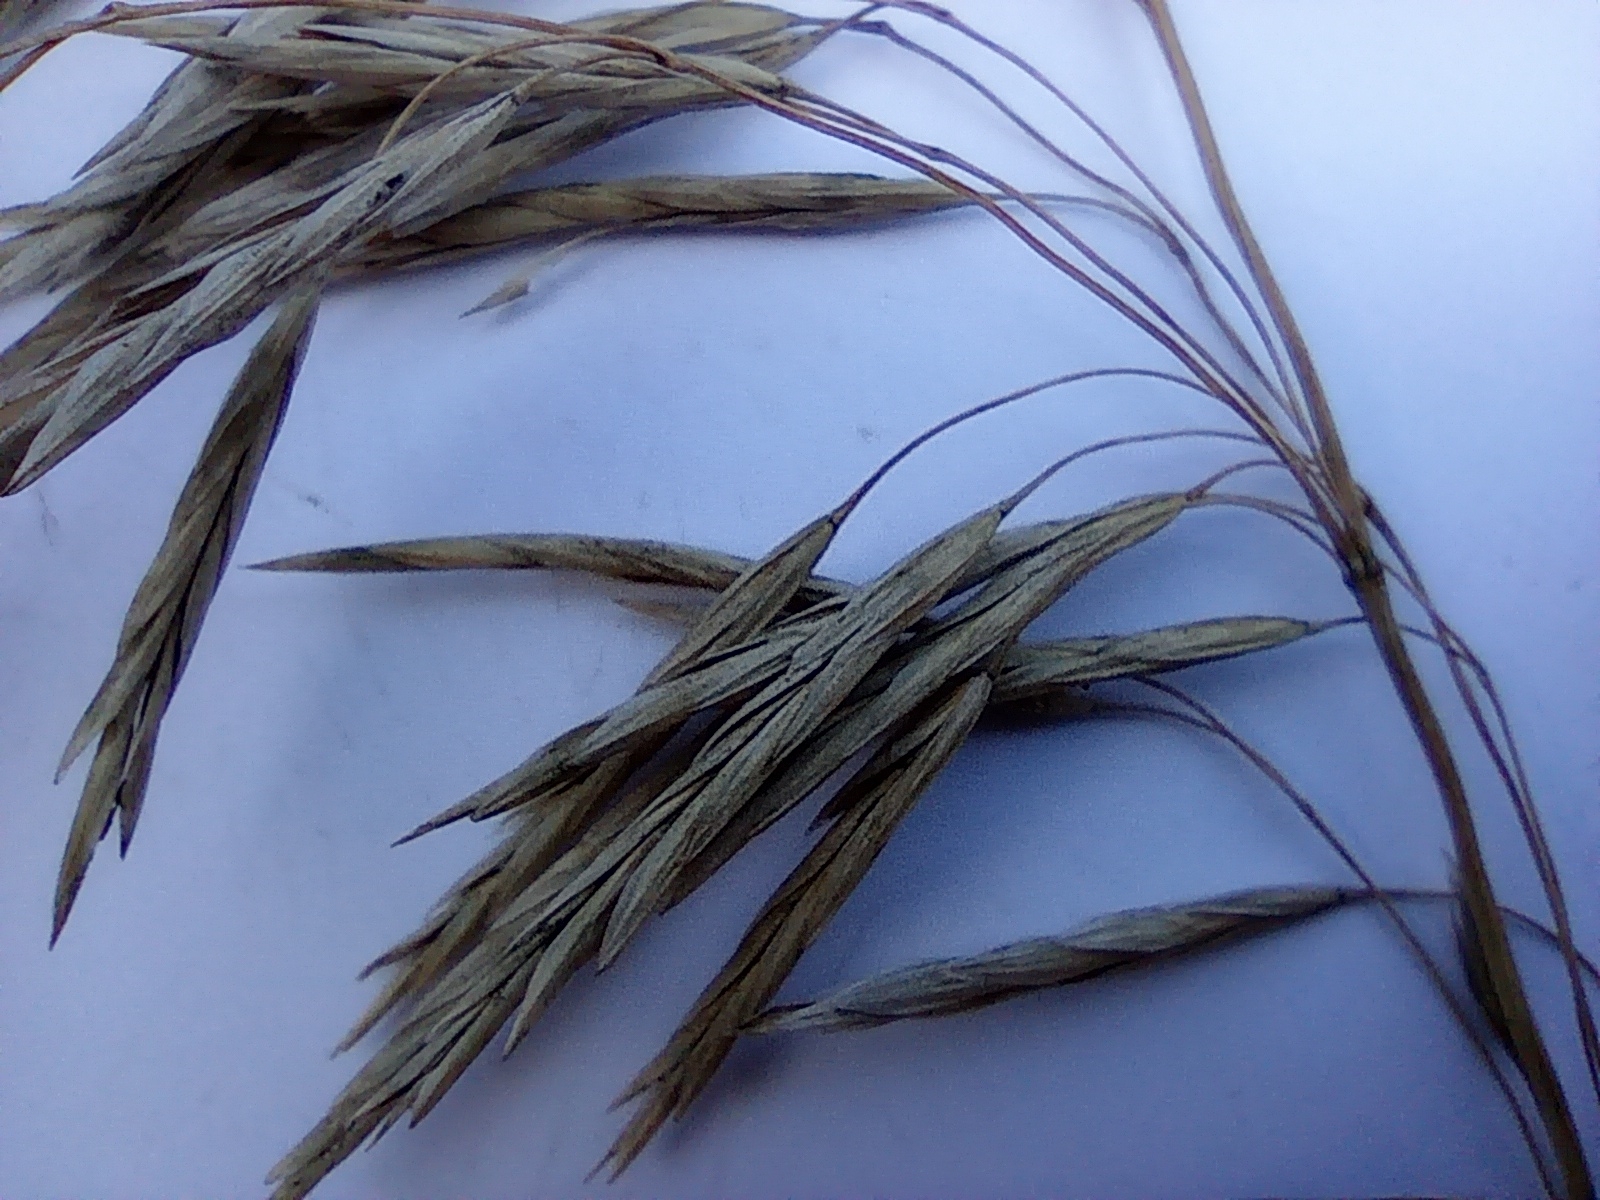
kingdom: Plantae
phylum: Tracheophyta
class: Liliopsida
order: Poales
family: Poaceae
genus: Bromus
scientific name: Bromus inermis
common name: Smooth brome
